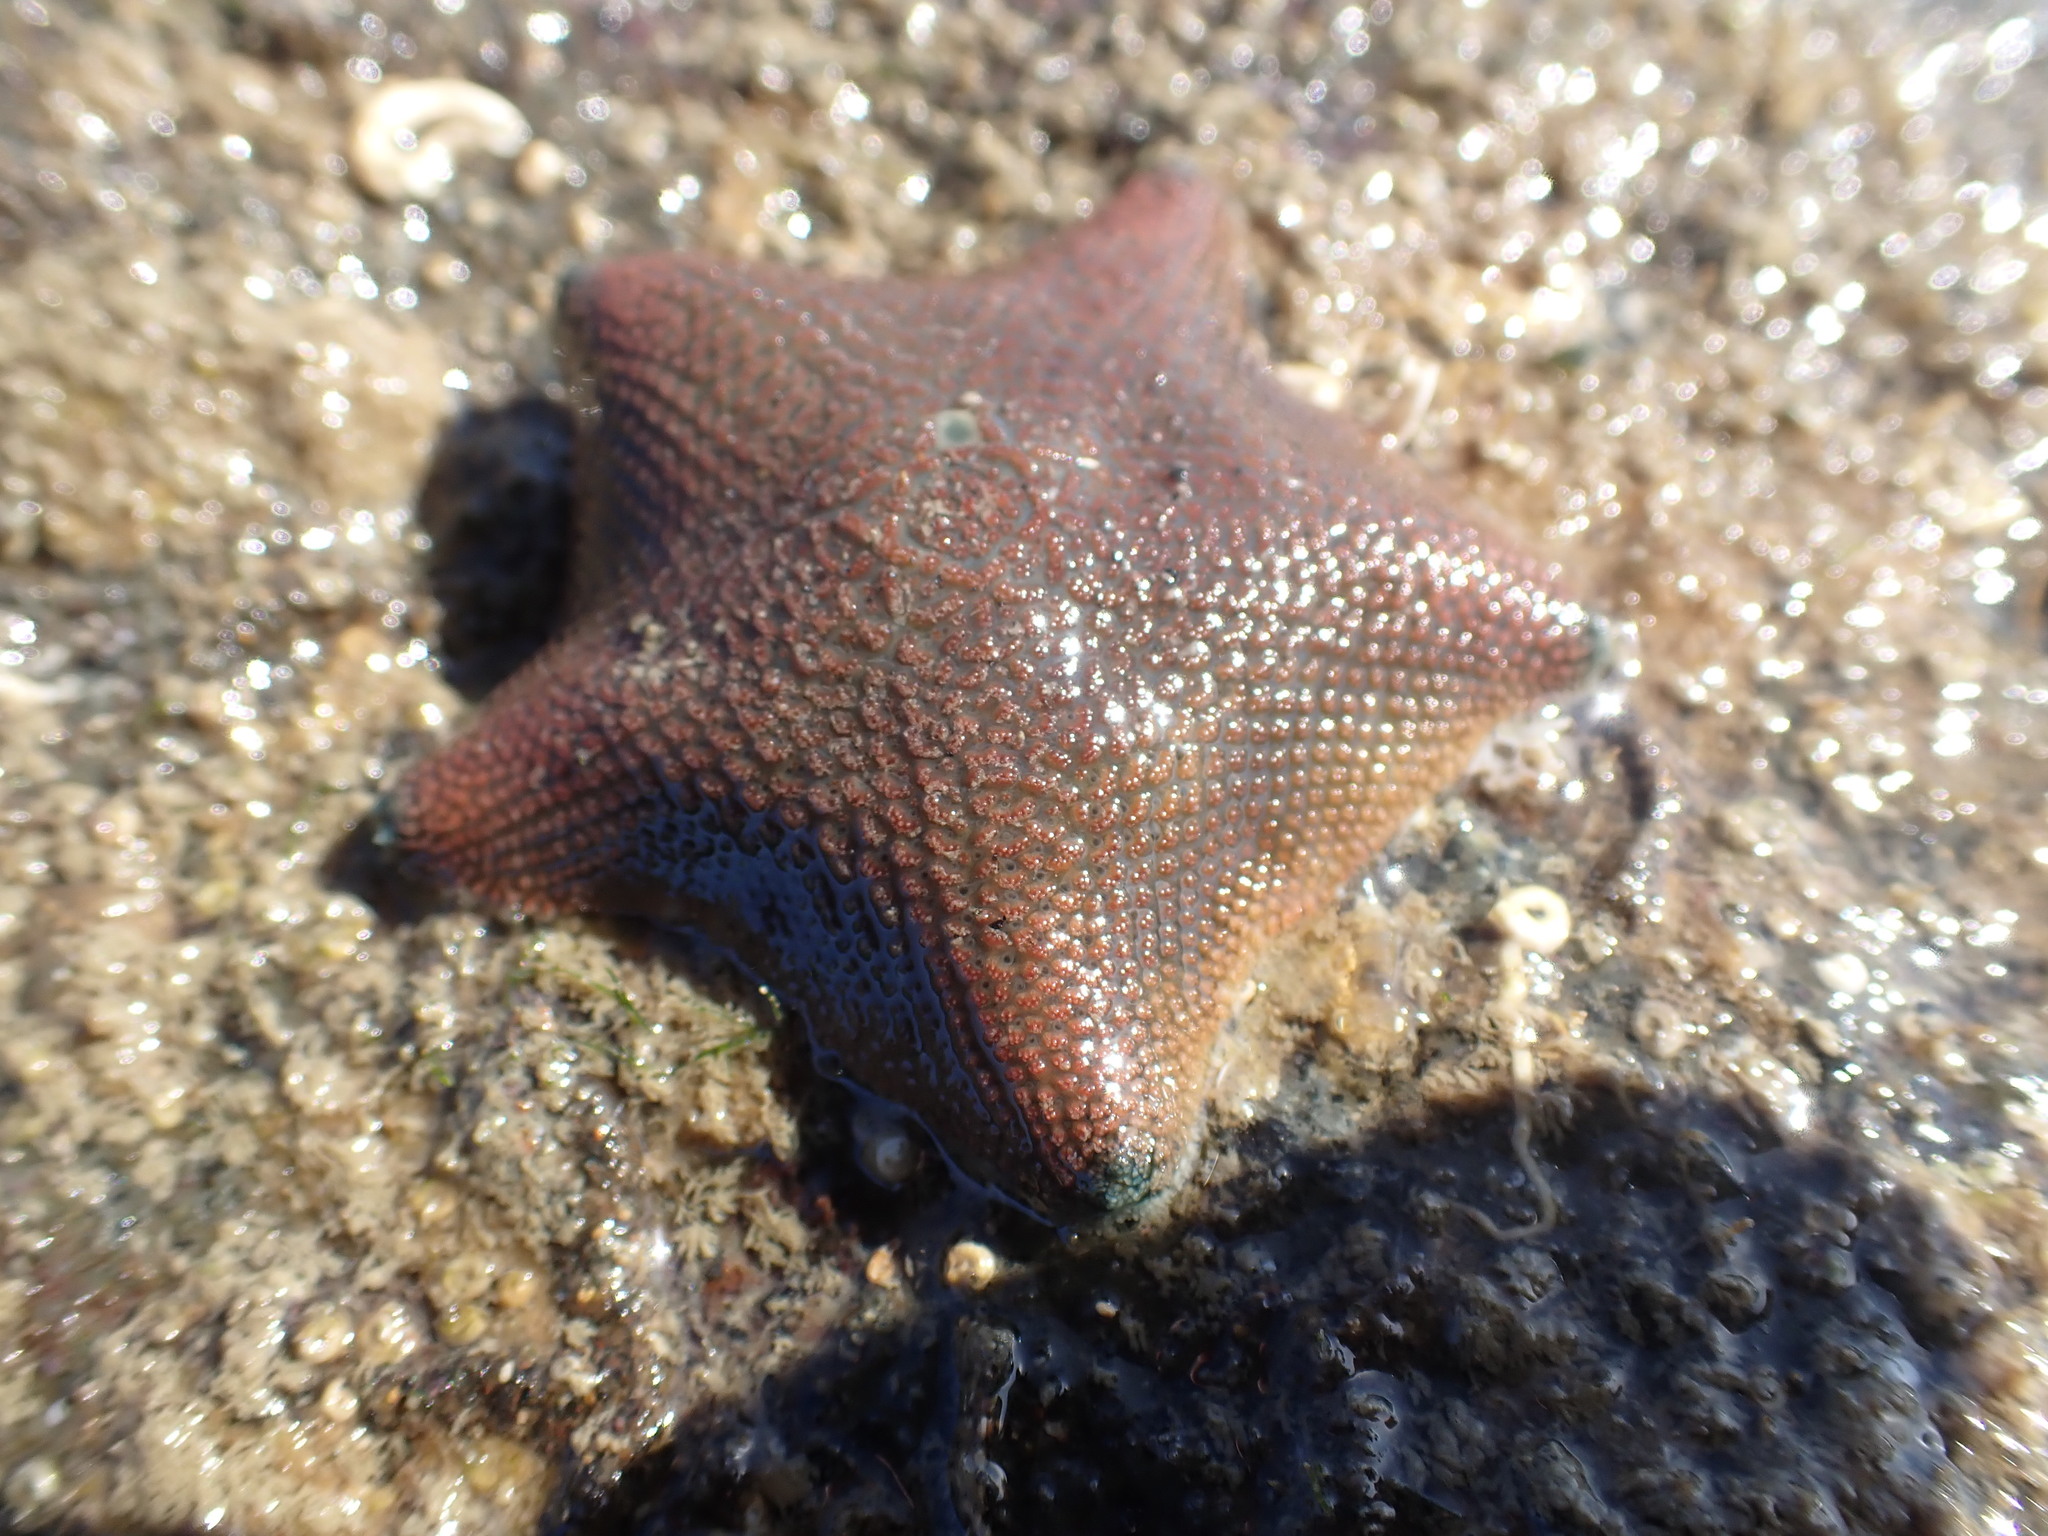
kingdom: Animalia
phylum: Echinodermata
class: Asteroidea
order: Valvatida
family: Asterinidae
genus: Patiriella
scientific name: Patiriella regularis
